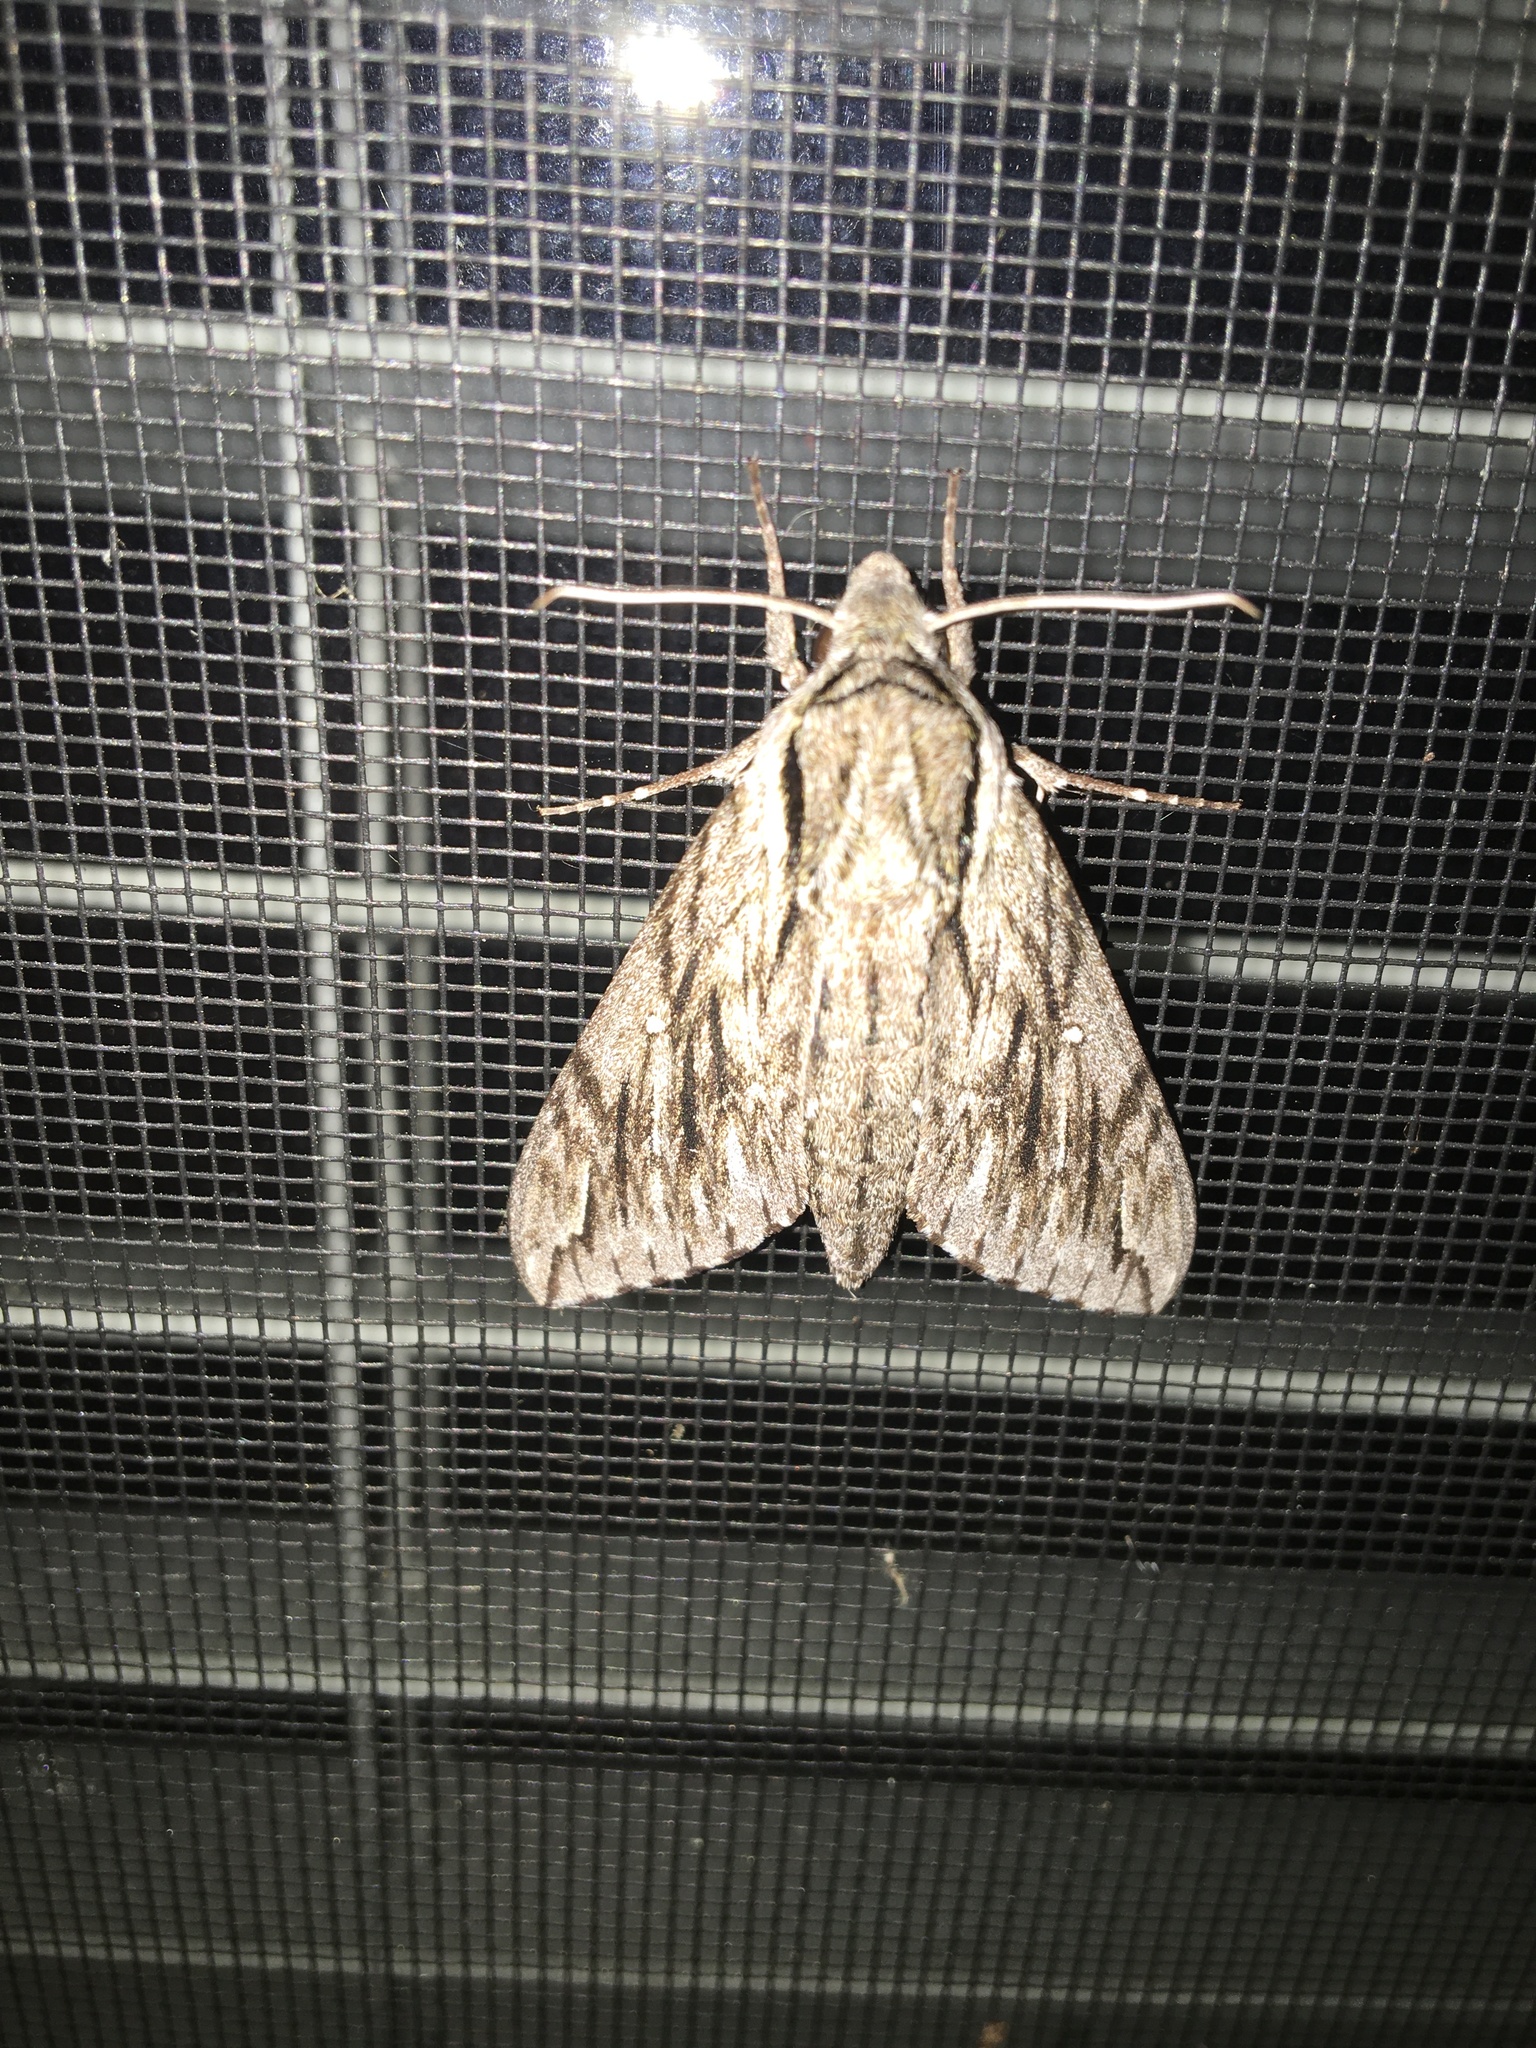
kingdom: Animalia
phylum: Arthropoda
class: Insecta
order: Lepidoptera
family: Sphingidae
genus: Paratrea
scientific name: Paratrea plebeja
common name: Plebian sphinx
